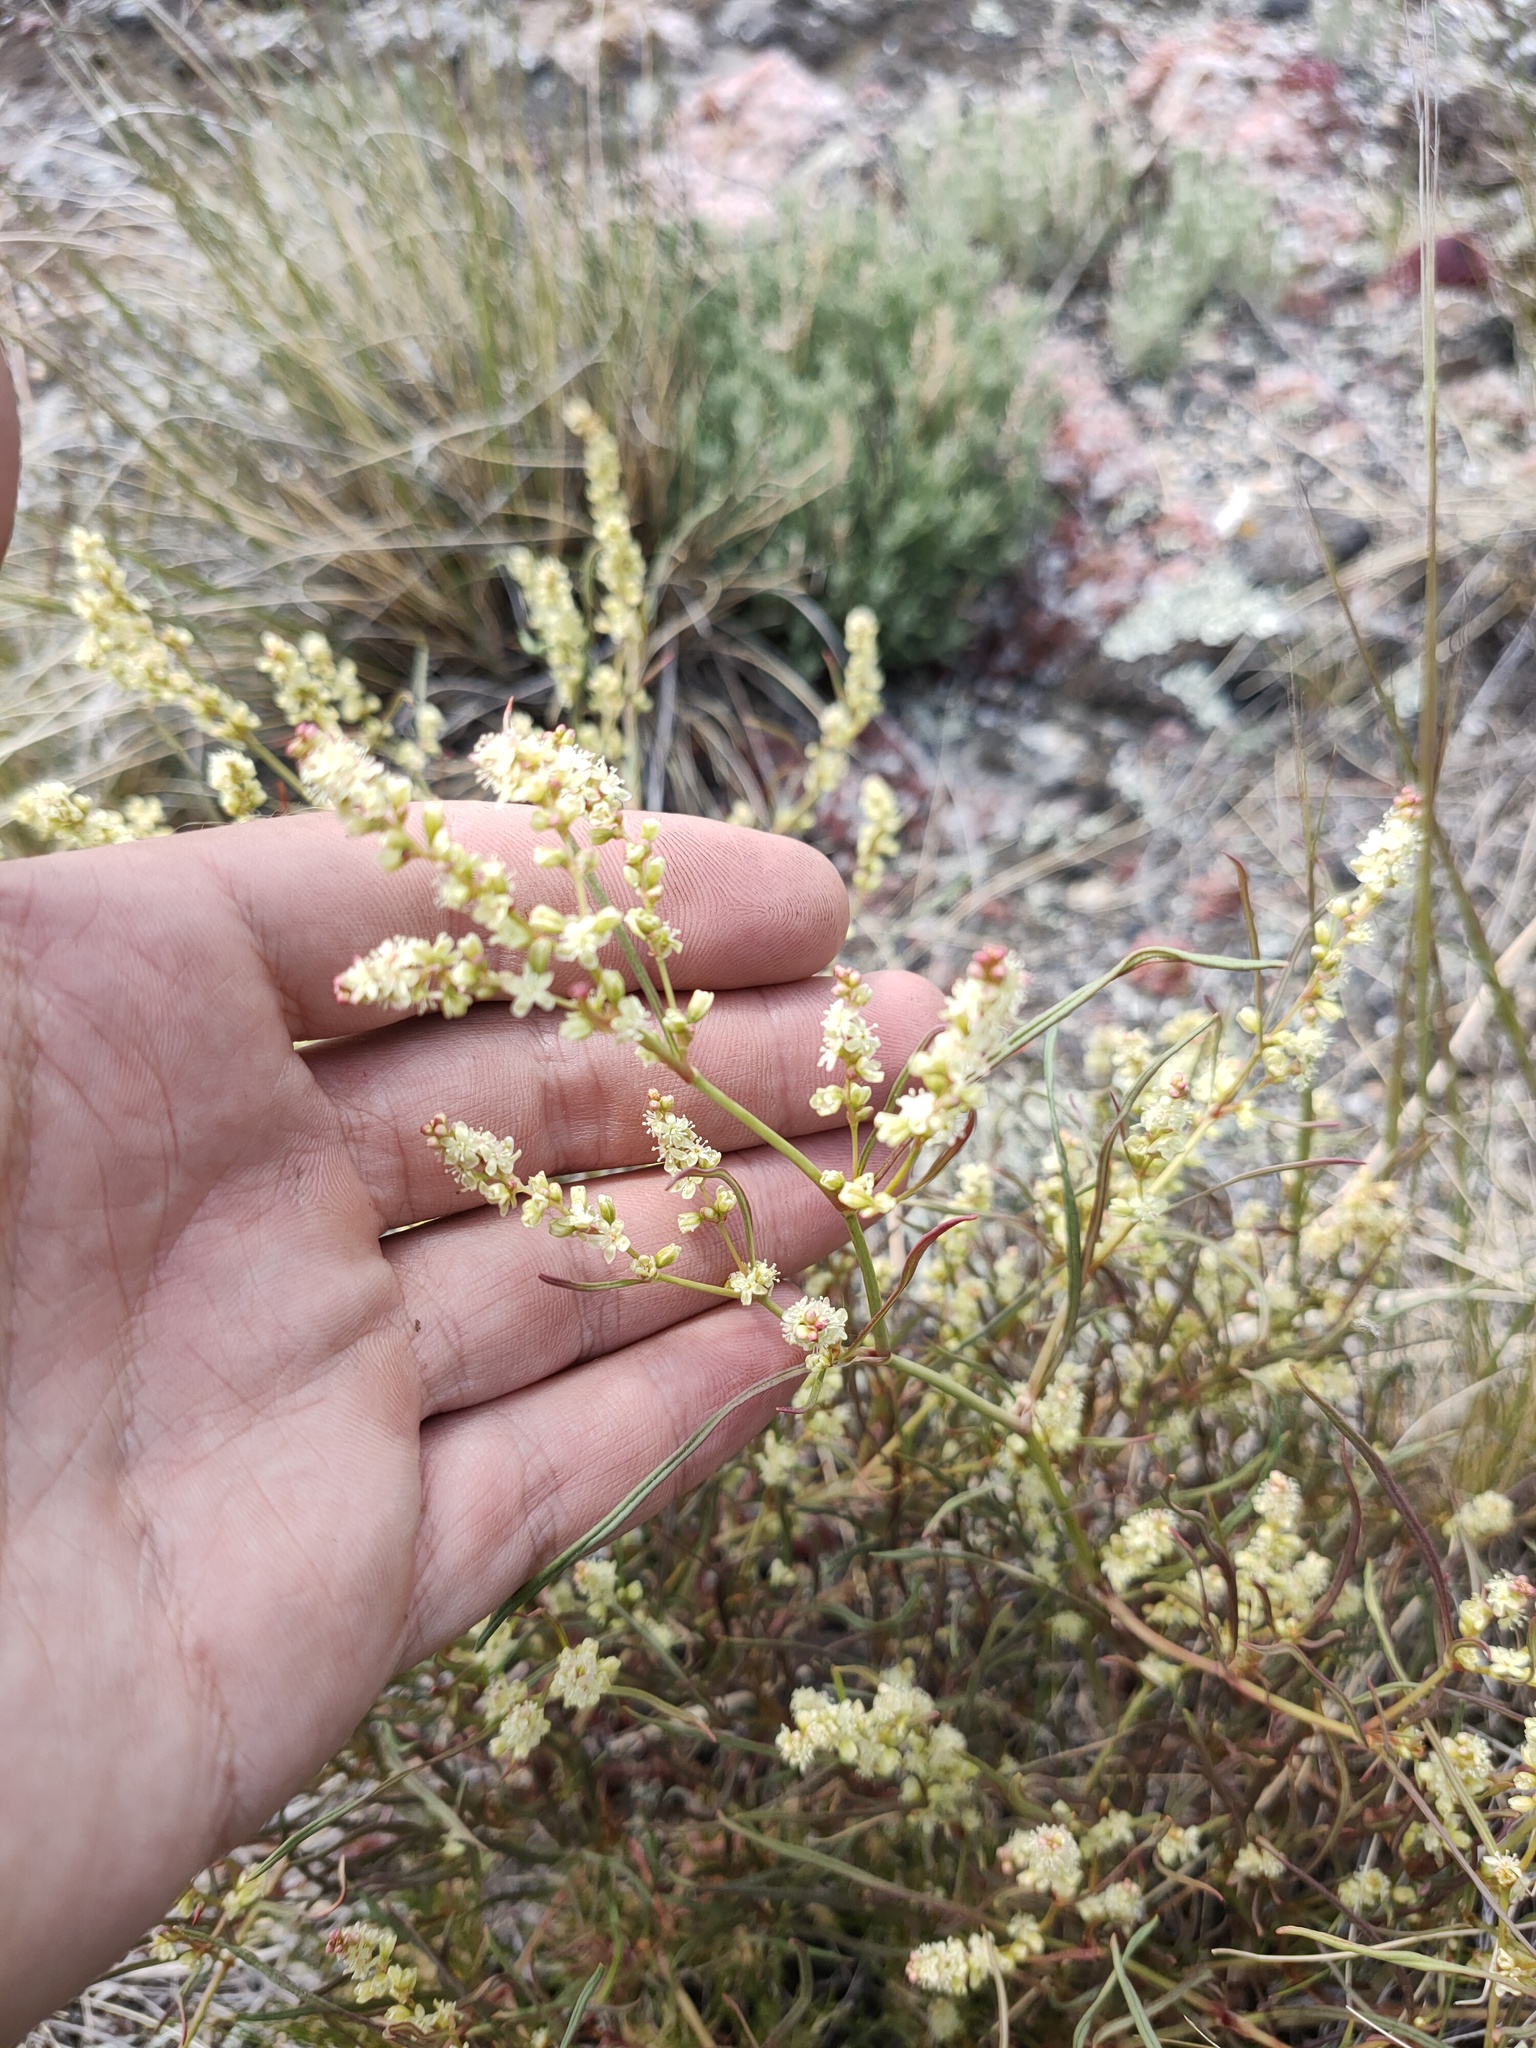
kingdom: Plantae
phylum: Tracheophyta
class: Magnoliopsida
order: Caryophyllales
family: Polygonaceae
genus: Persicaria
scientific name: Persicaria angustifolia
